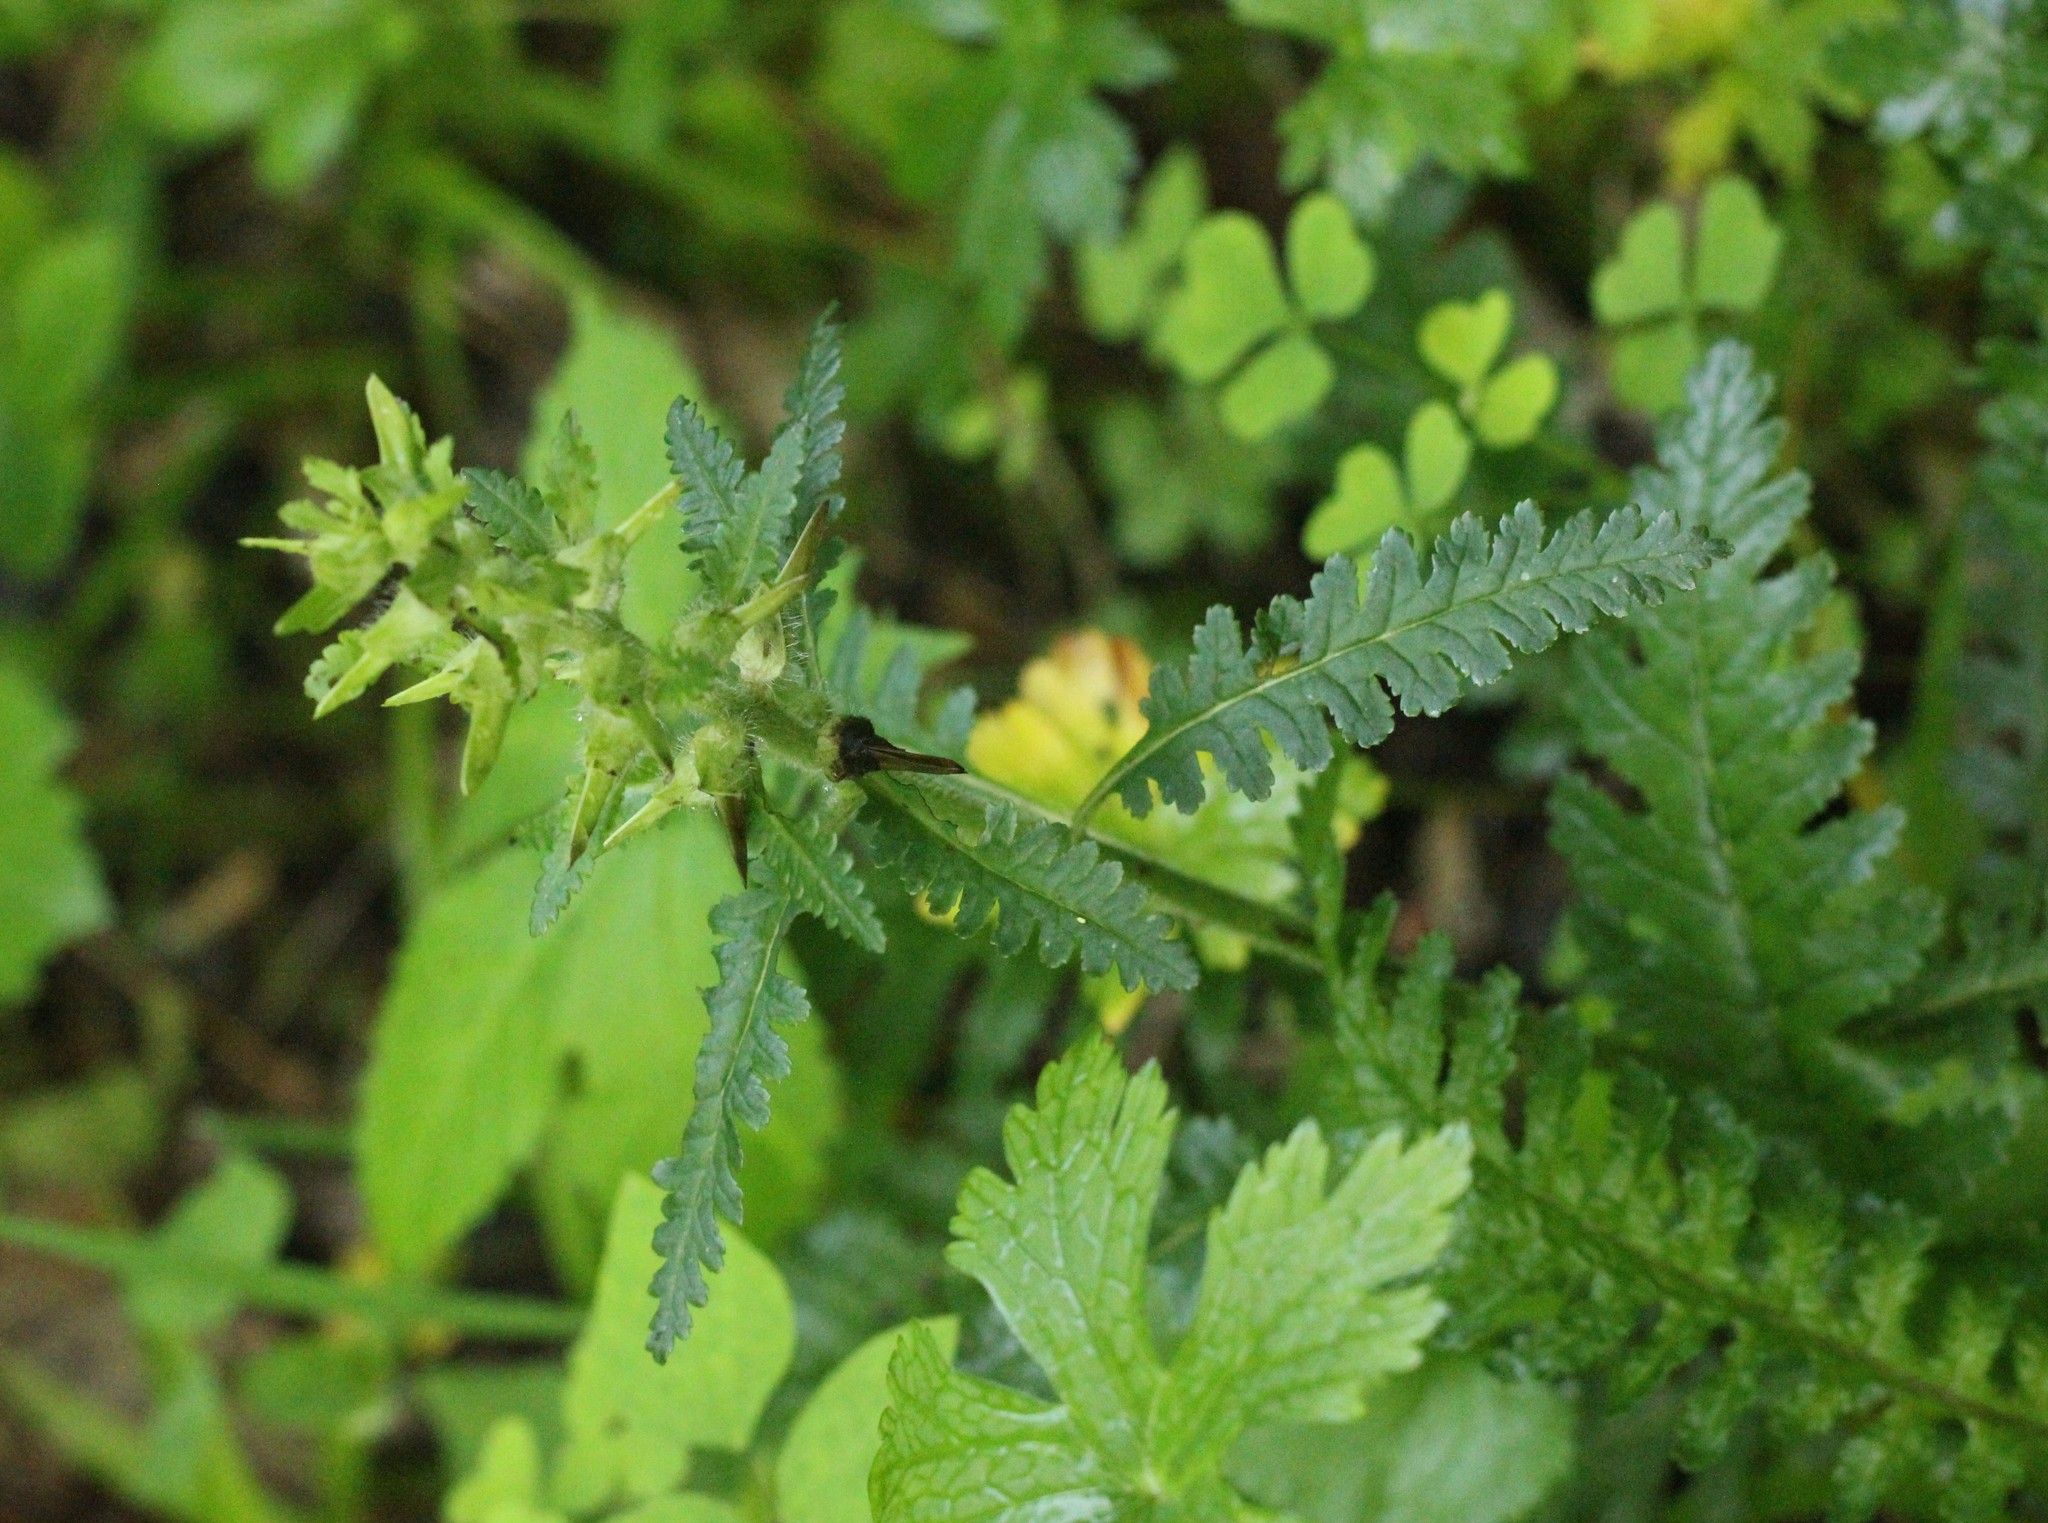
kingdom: Plantae
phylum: Tracheophyta
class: Magnoliopsida
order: Lamiales
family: Orobanchaceae
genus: Pedicularis
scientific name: Pedicularis canadensis
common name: Early lousewort
